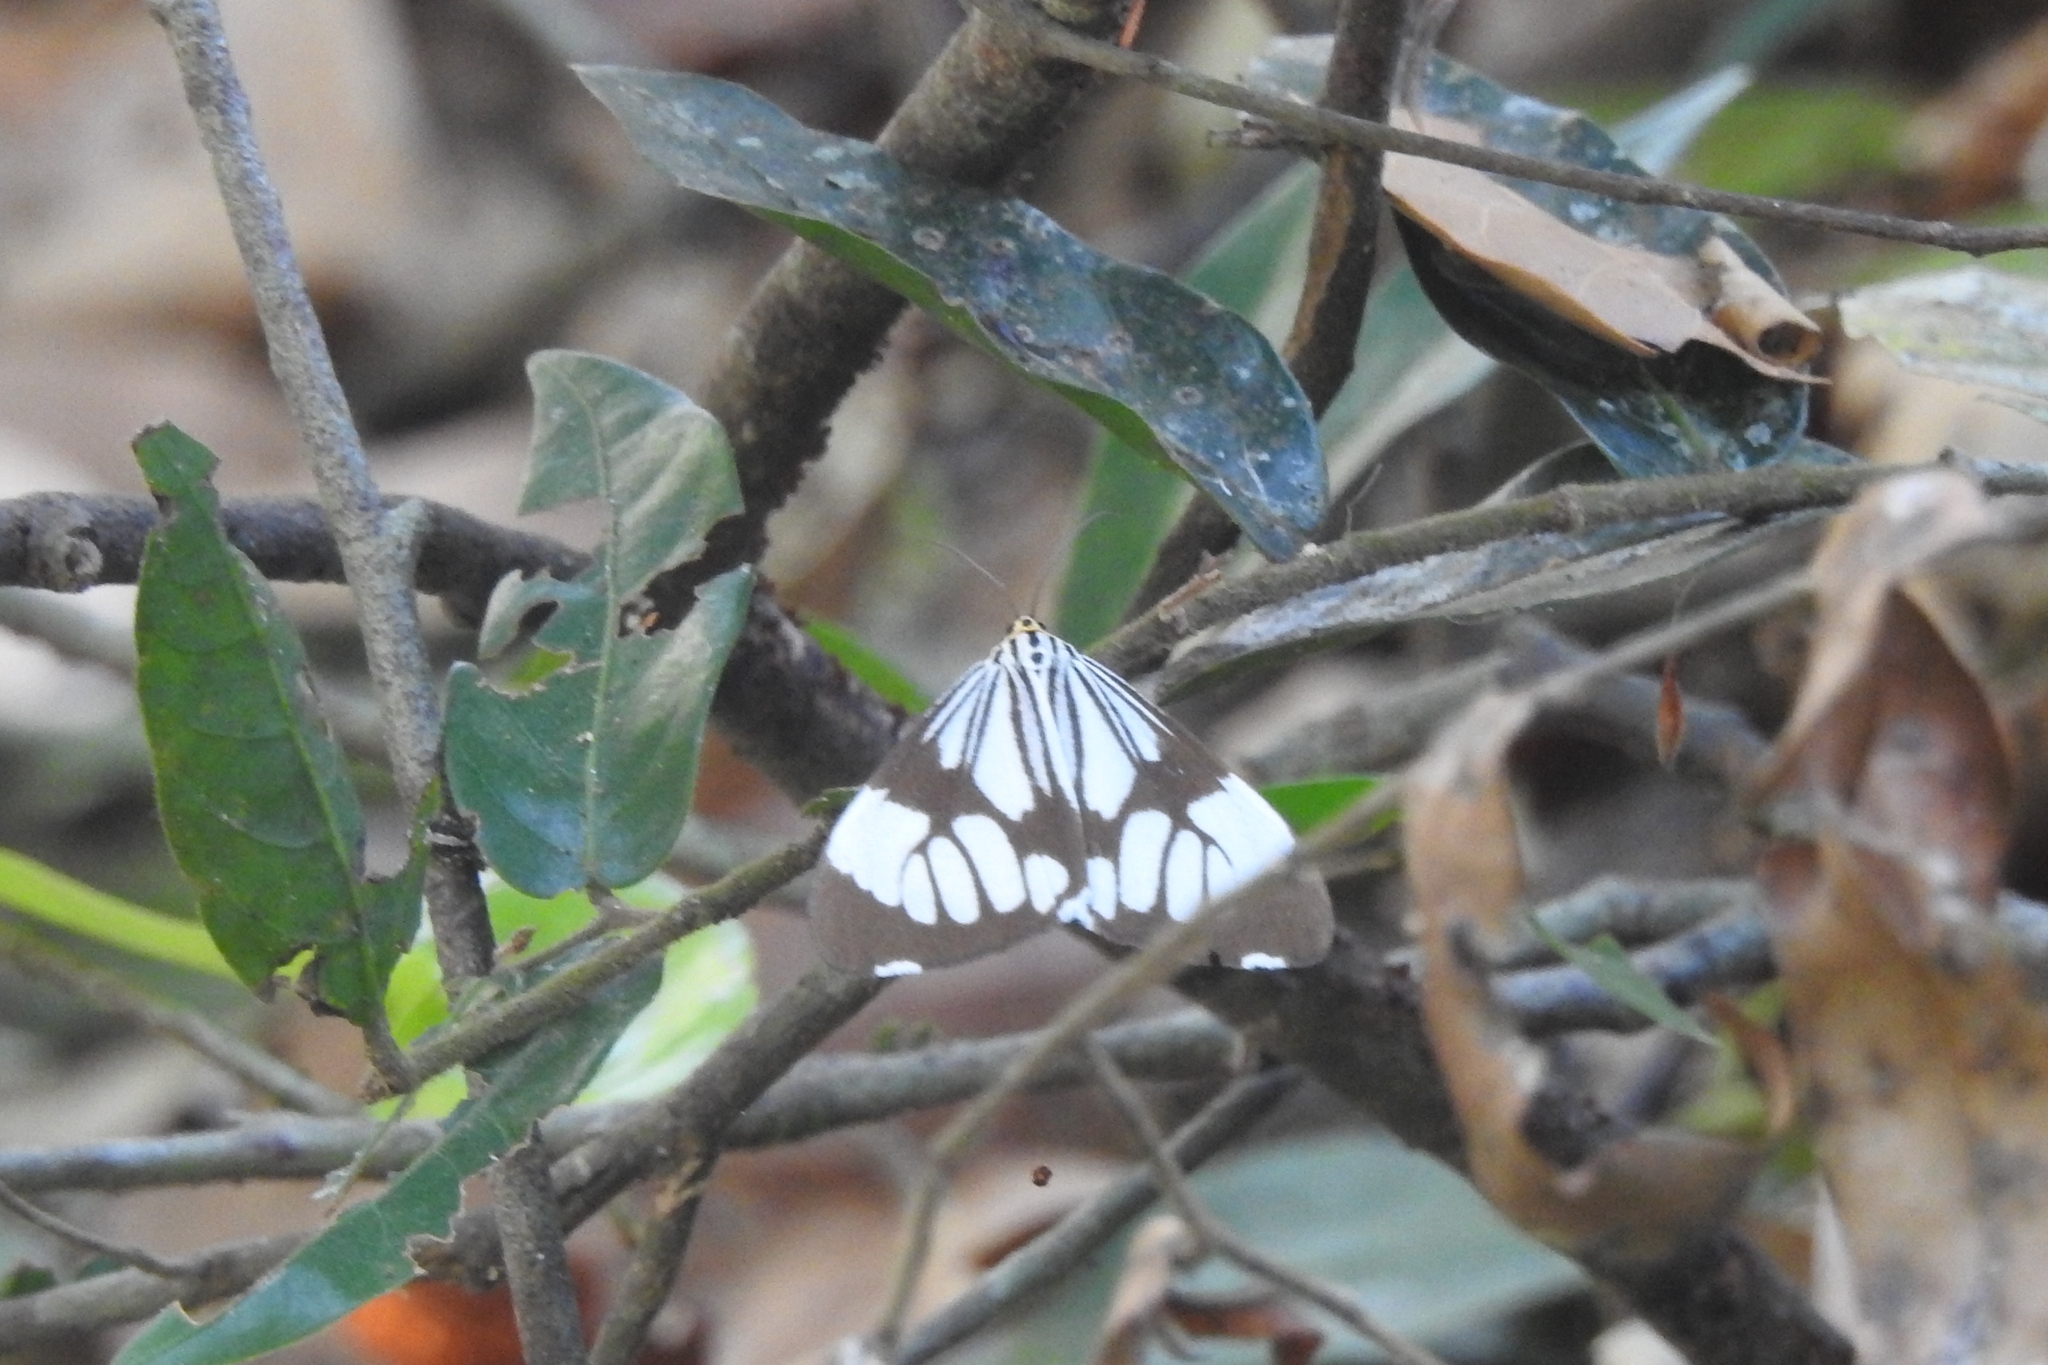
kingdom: Animalia
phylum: Arthropoda
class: Insecta
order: Lepidoptera
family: Erebidae
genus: Nyctemera
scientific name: Nyctemera coleta
